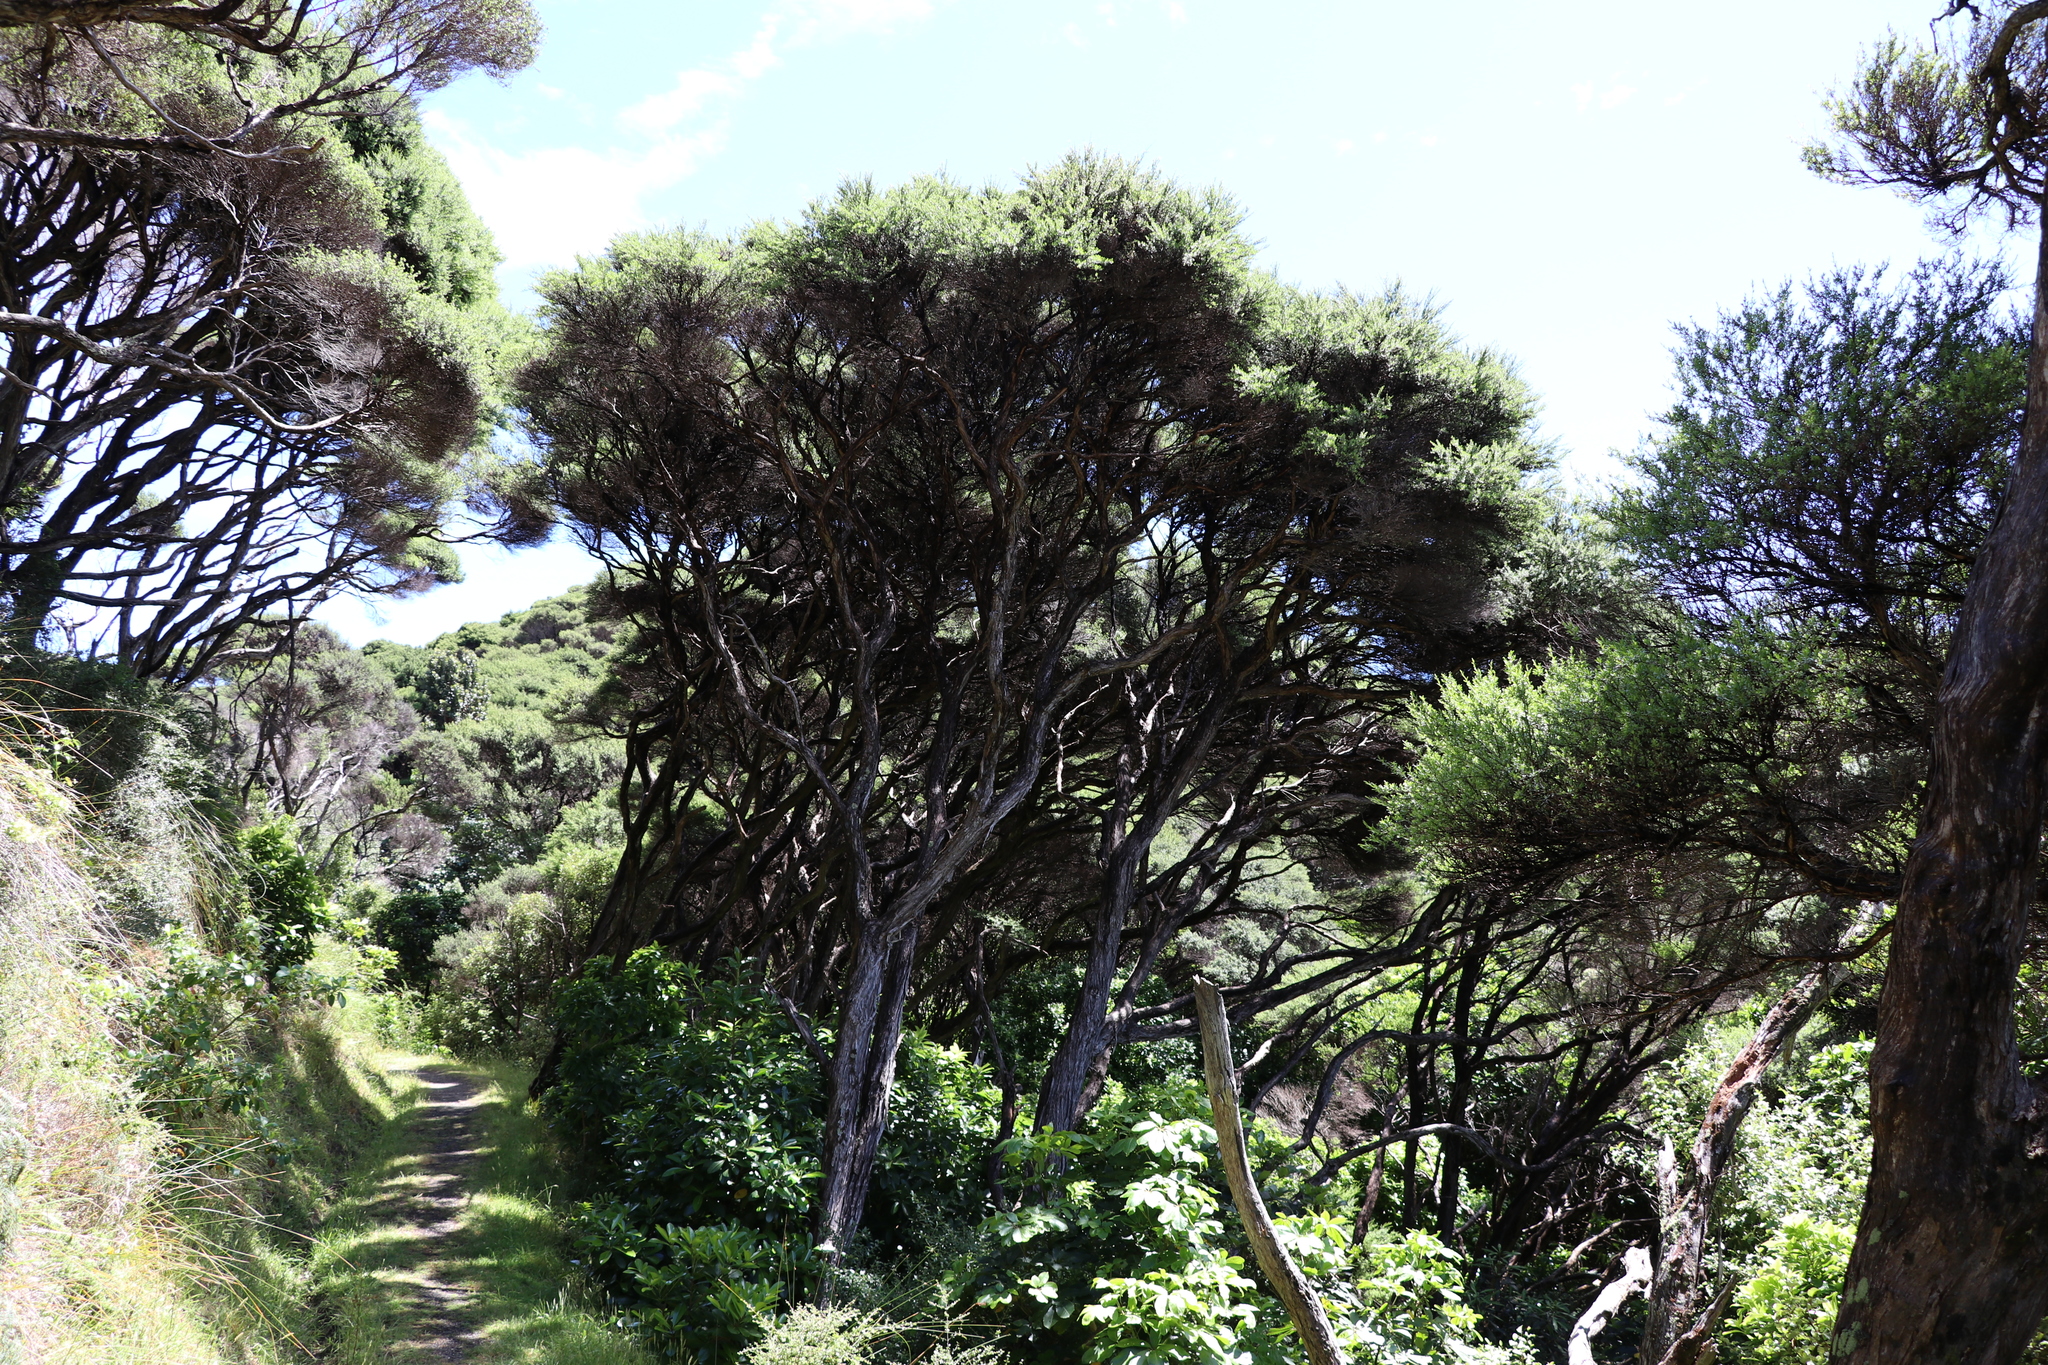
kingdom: Plantae
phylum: Tracheophyta
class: Magnoliopsida
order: Myrtales
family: Myrtaceae
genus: Kunzea
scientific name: Kunzea robusta
